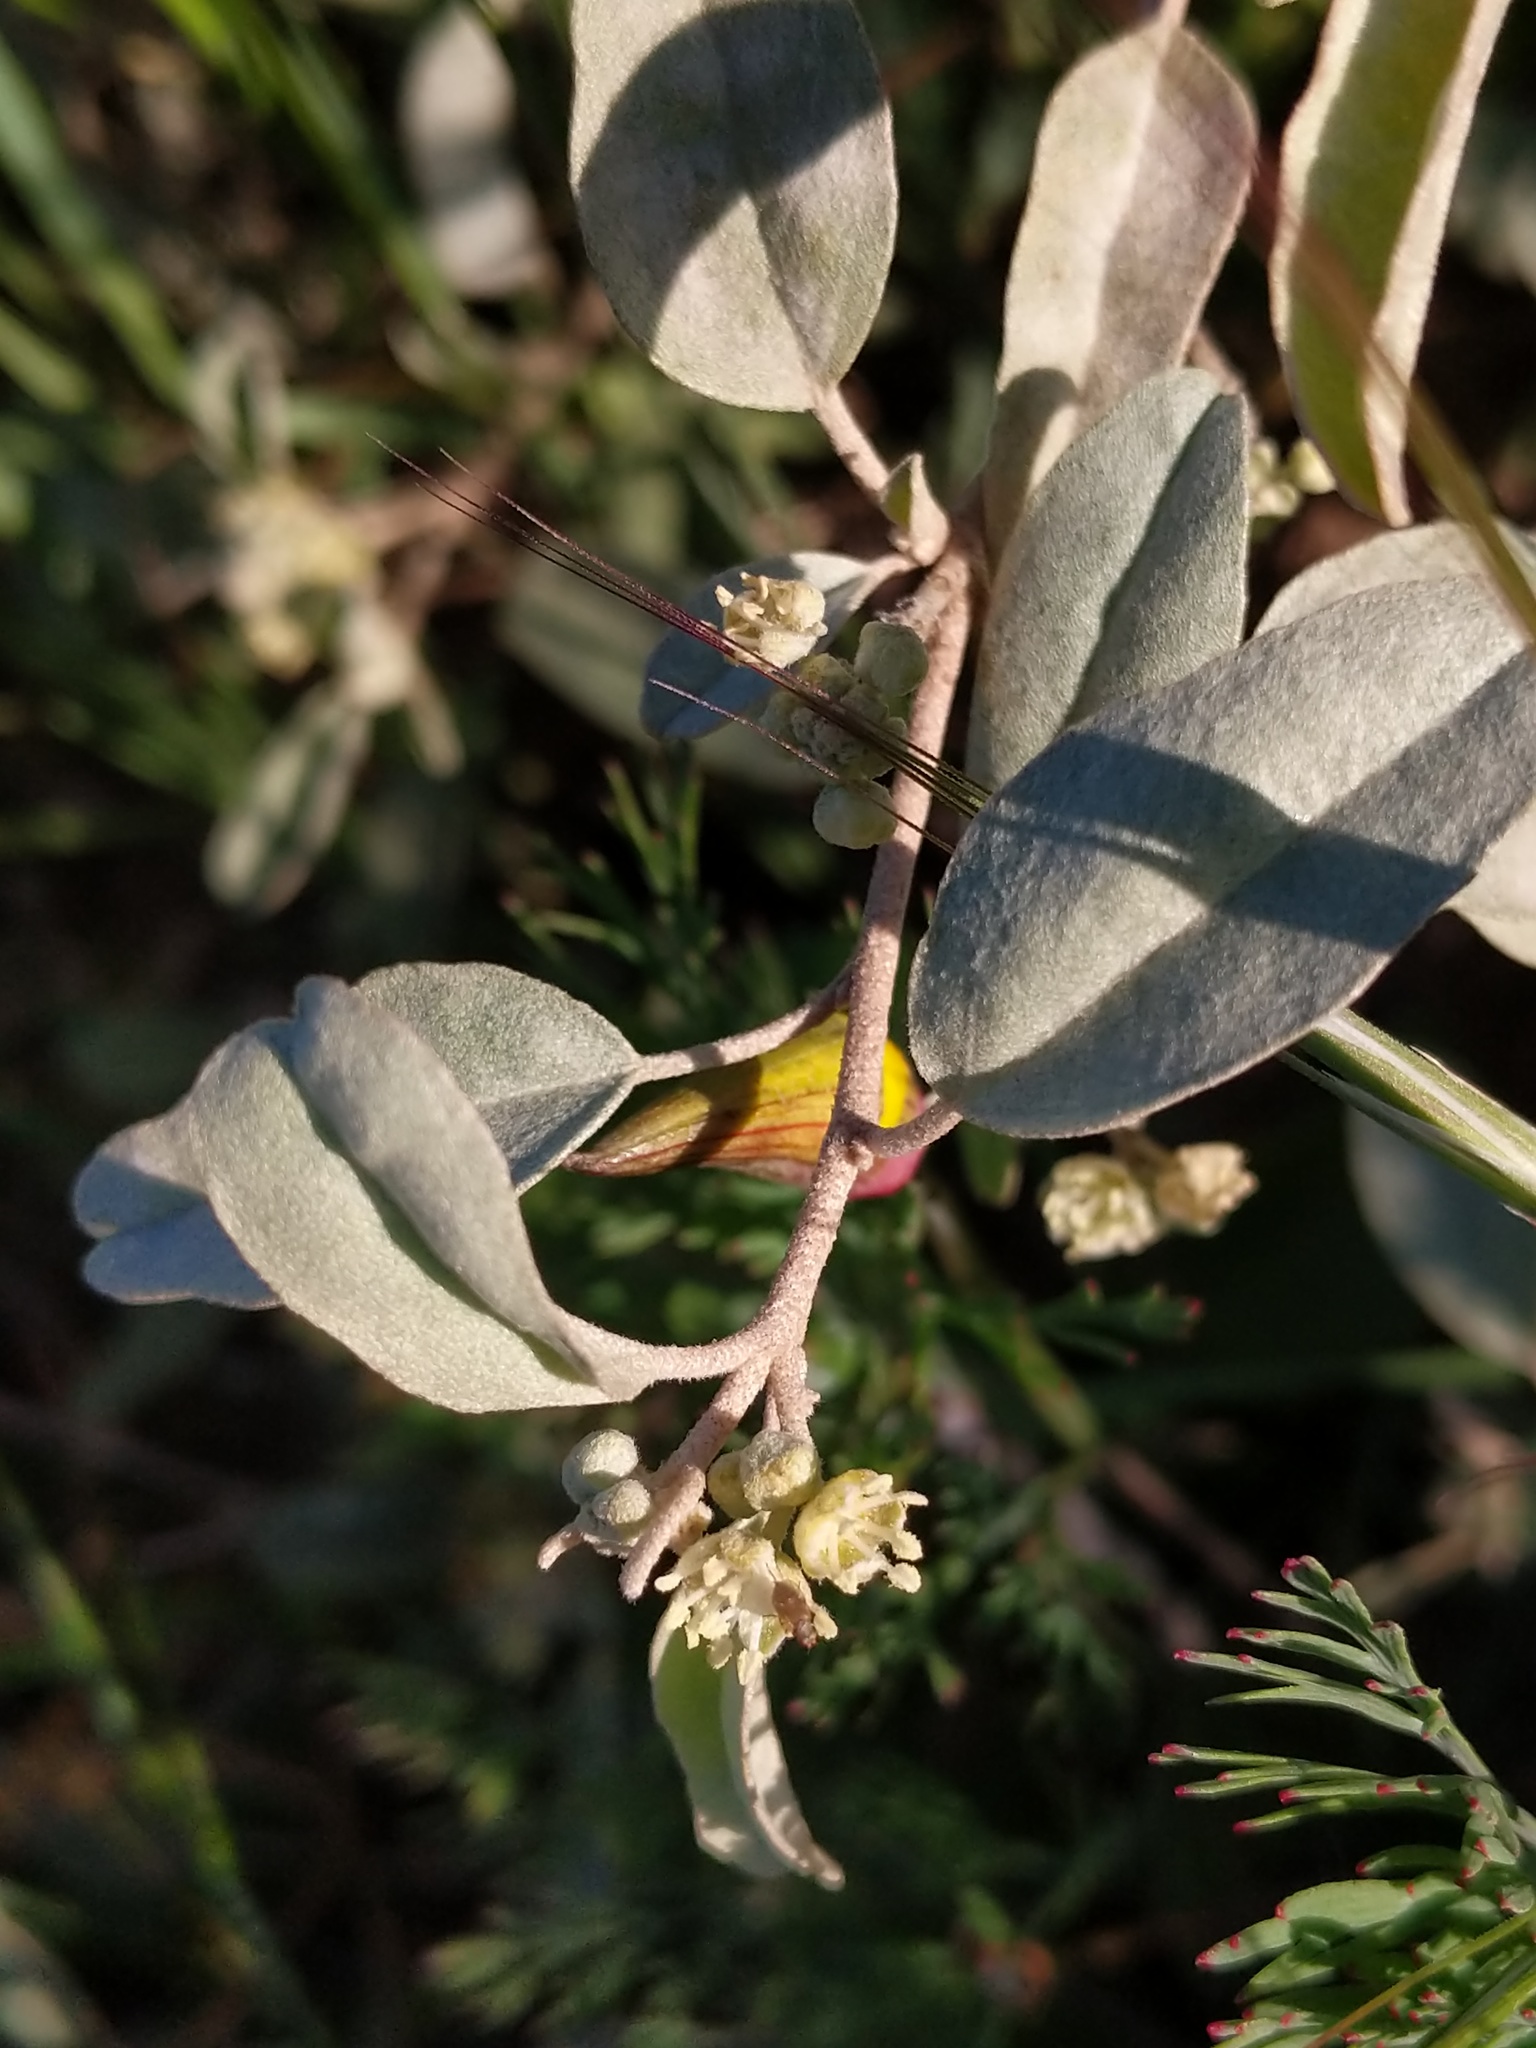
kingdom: Plantae
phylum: Tracheophyta
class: Magnoliopsida
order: Malpighiales
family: Euphorbiaceae
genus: Croton
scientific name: Croton californicus
